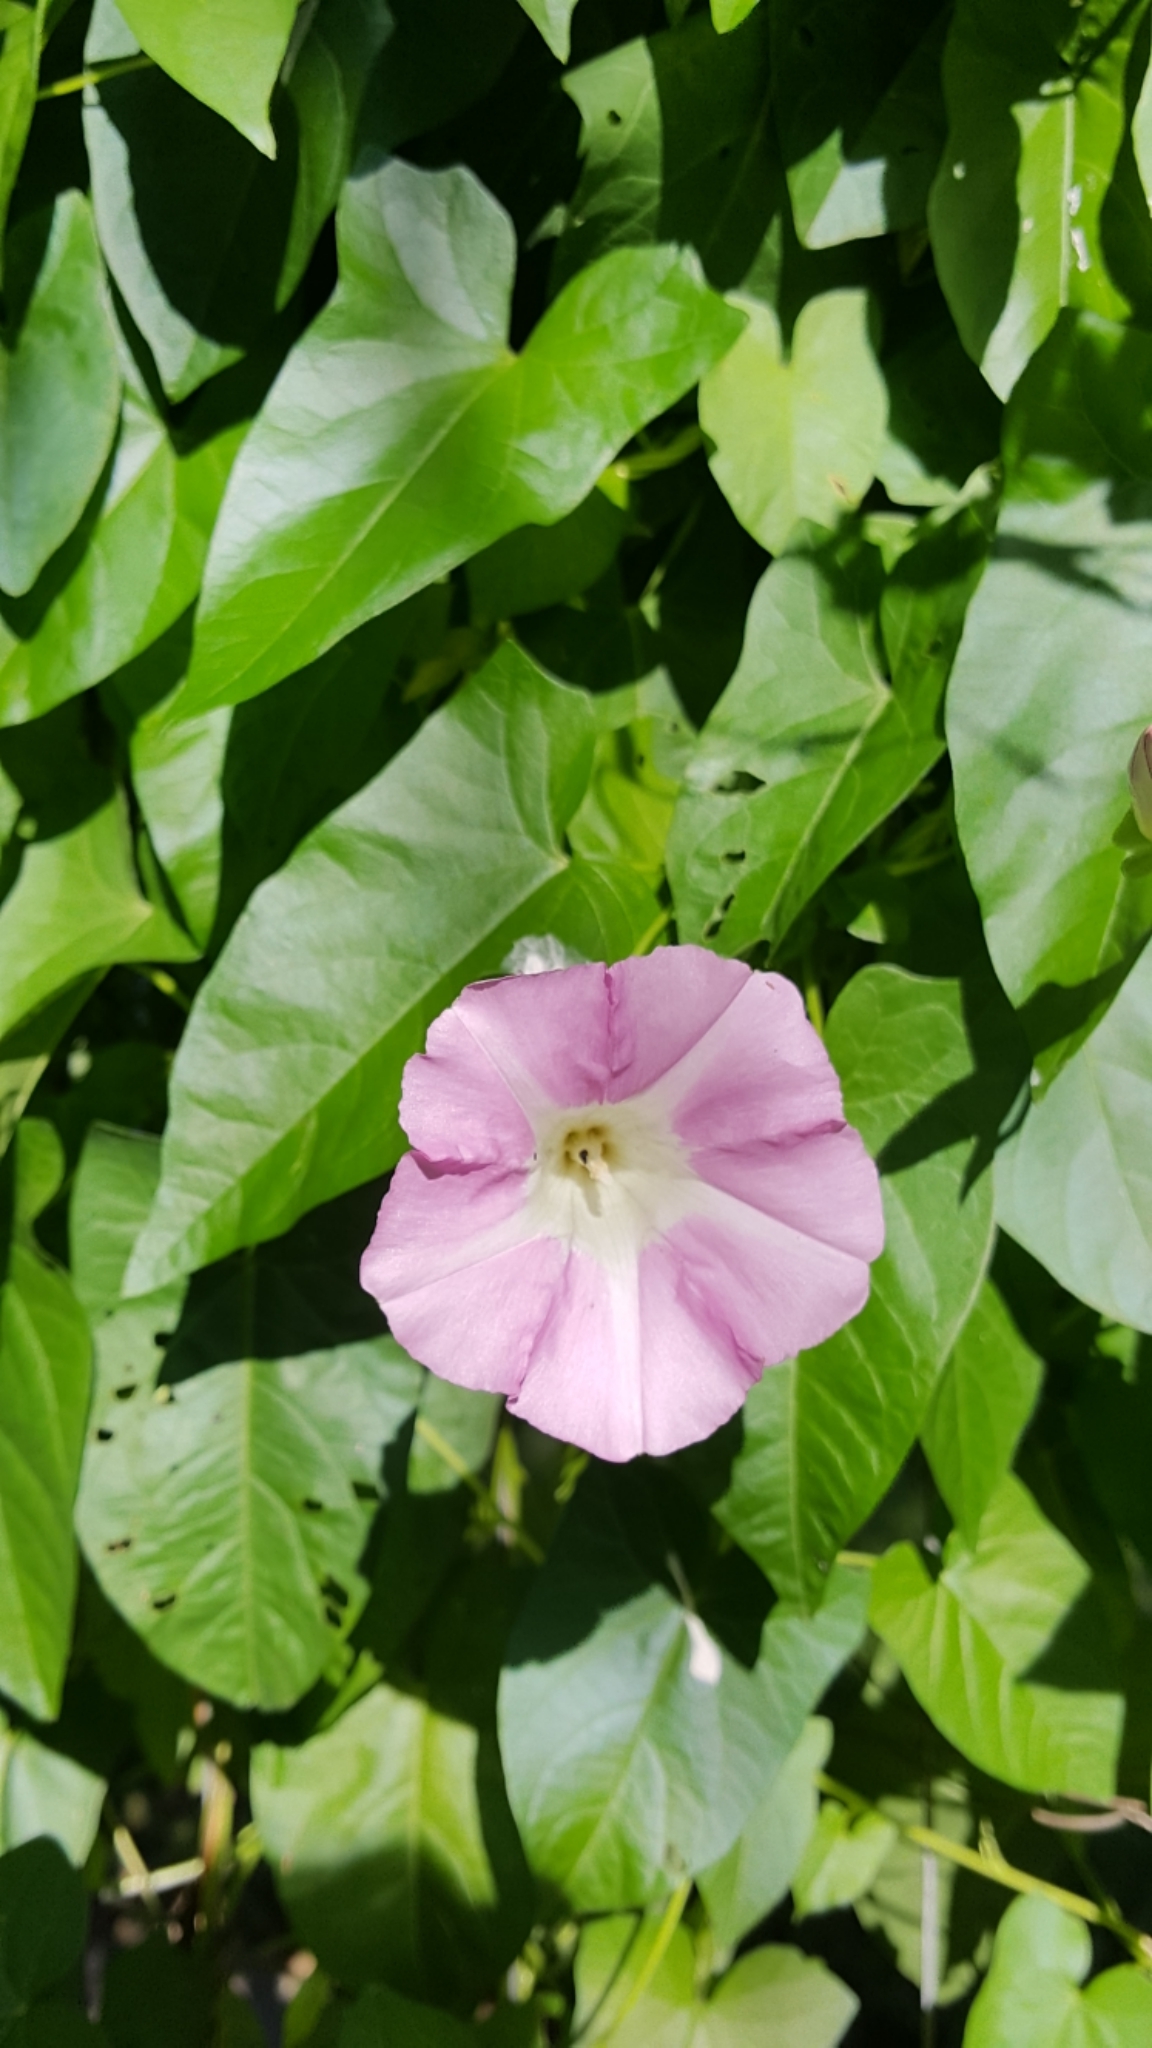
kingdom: Plantae
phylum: Tracheophyta
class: Magnoliopsida
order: Solanales
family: Convolvulaceae
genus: Calystegia
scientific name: Calystegia sepium
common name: Hedge bindweed
